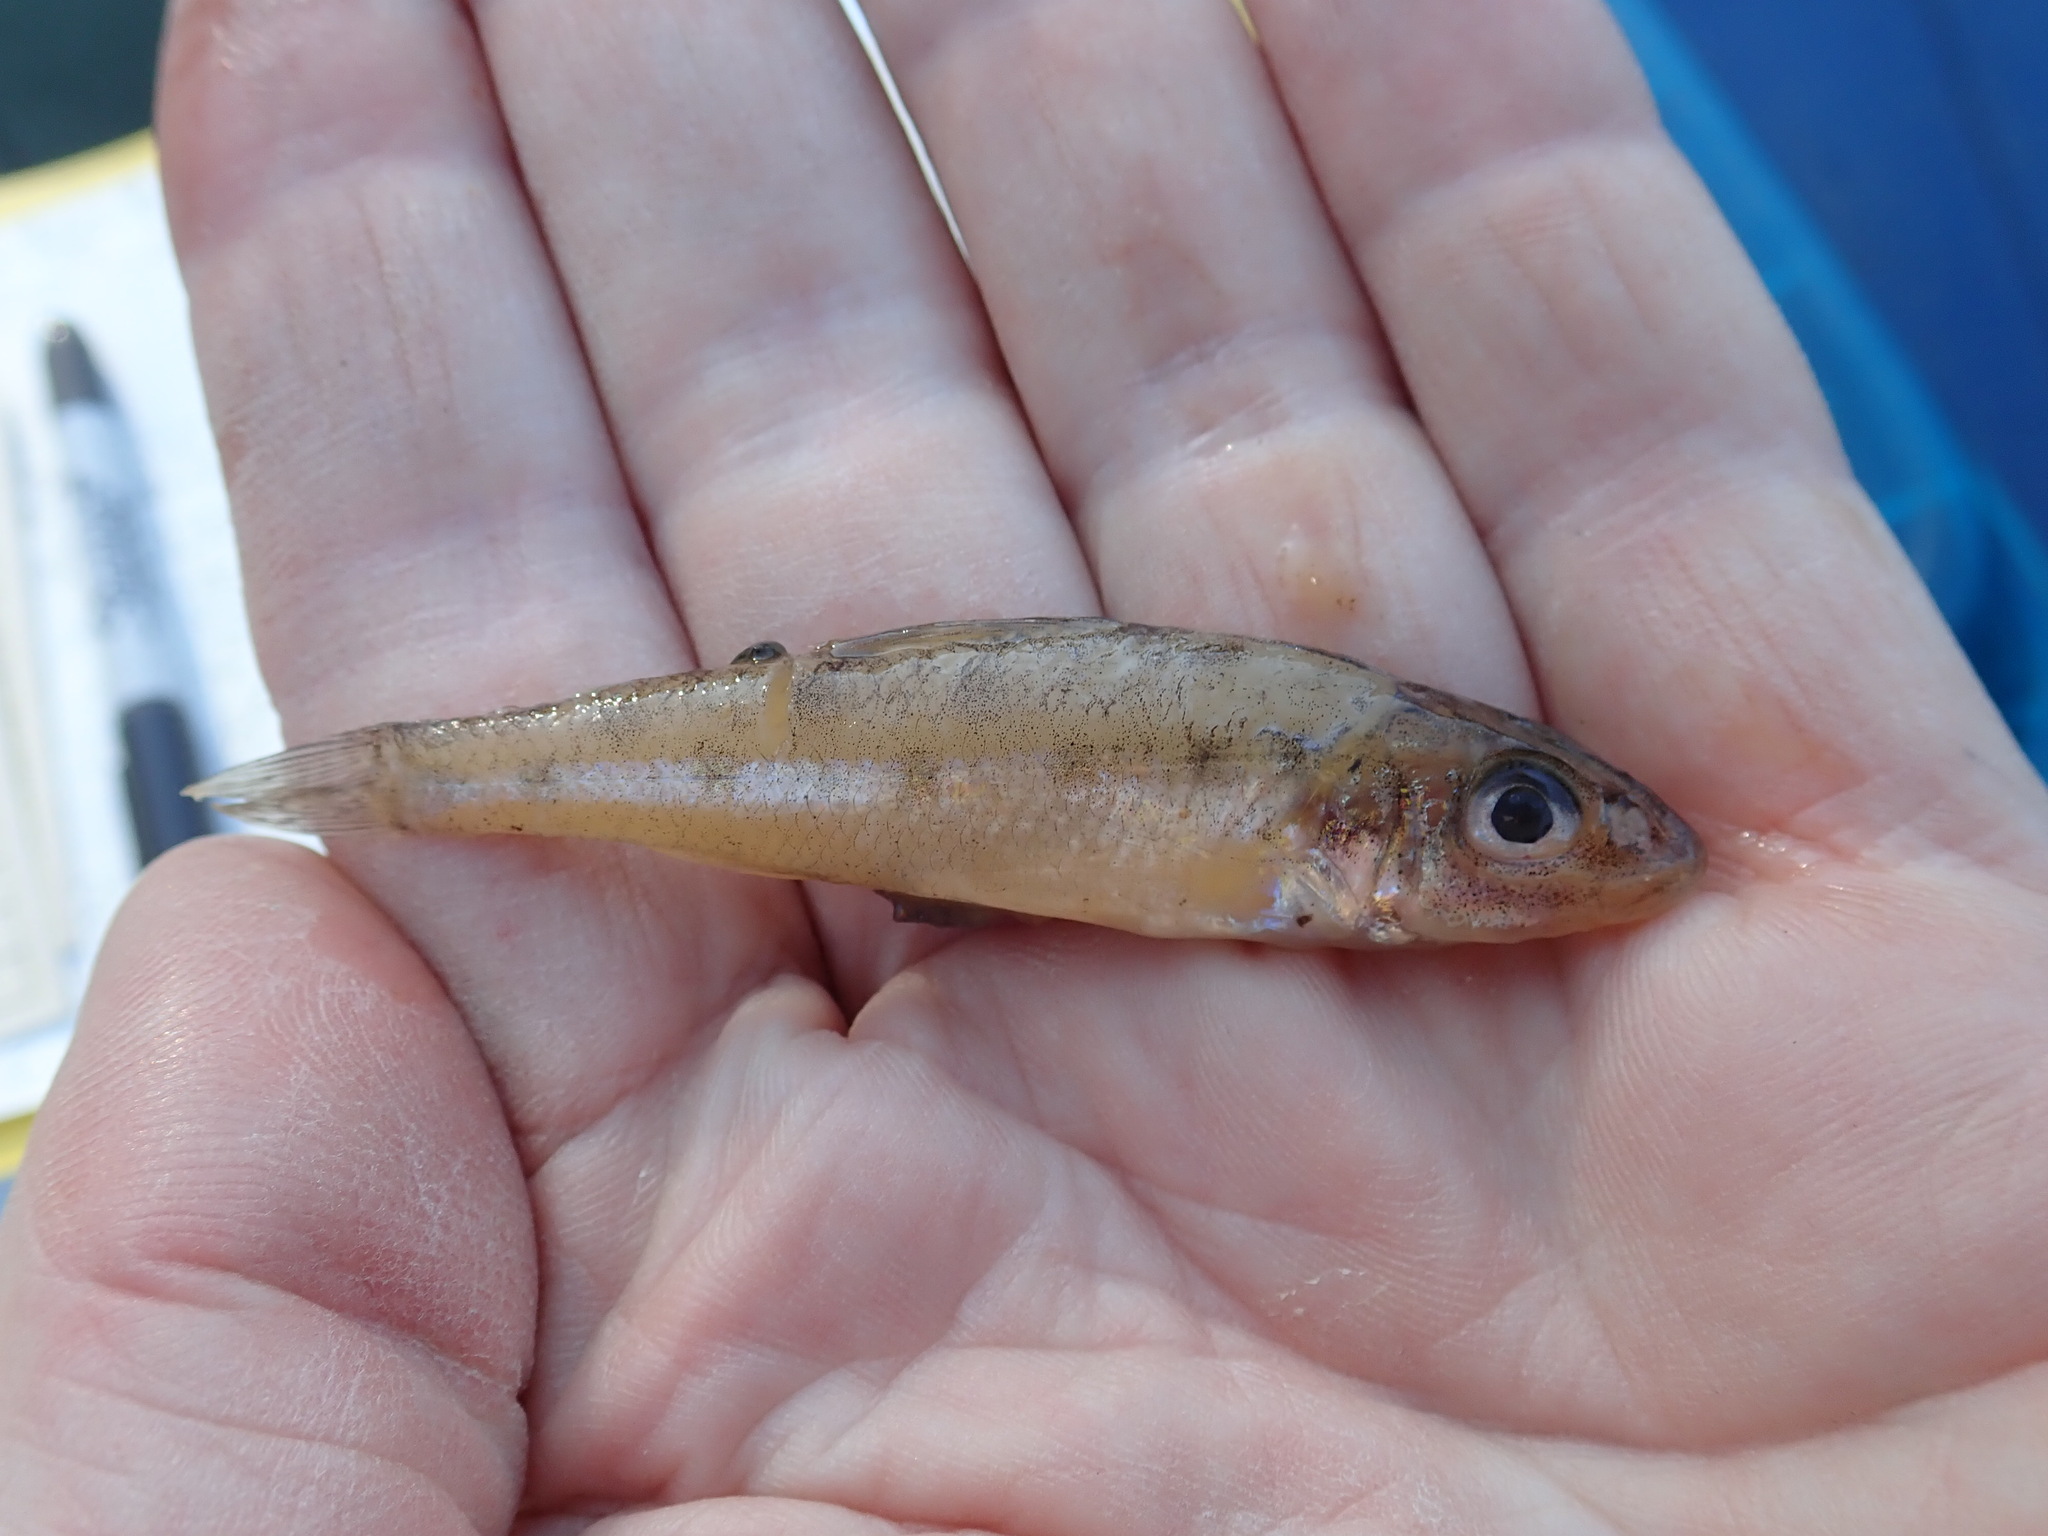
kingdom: Animalia
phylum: Chordata
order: Percopsiformes
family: Percopsidae
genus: Percopsis
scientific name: Percopsis omiscomaycus
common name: Trout-perch
